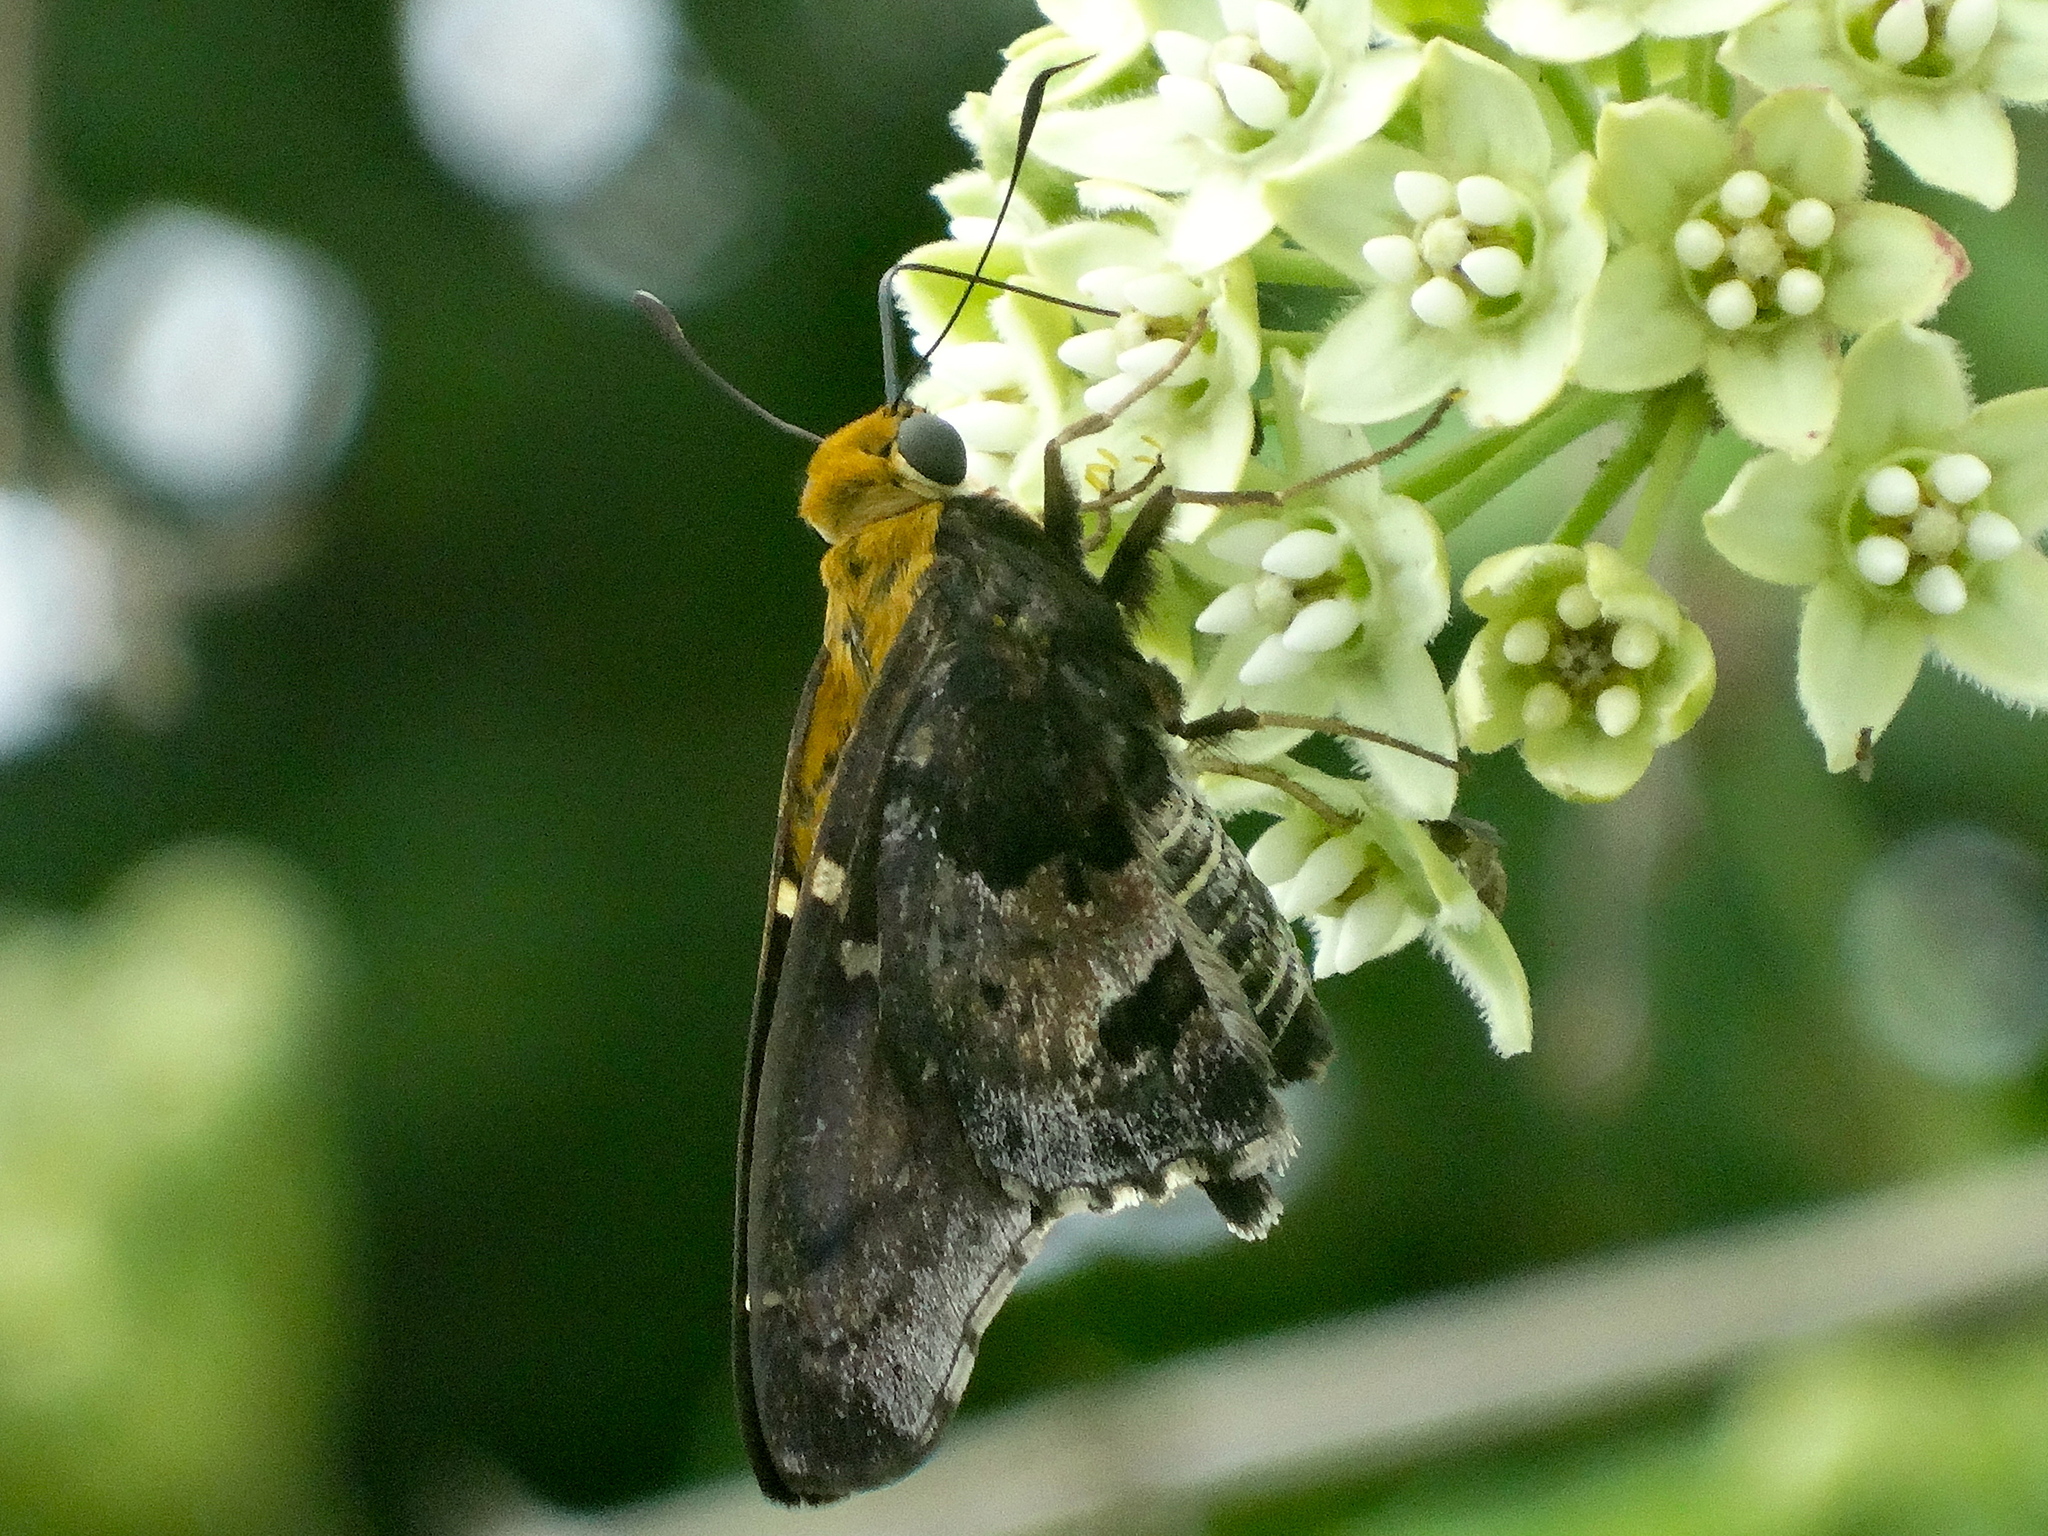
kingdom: Animalia
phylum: Arthropoda
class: Insecta
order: Lepidoptera
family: Hesperiidae
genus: Proteides
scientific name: Proteides mercurius
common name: Mercurial skipper
